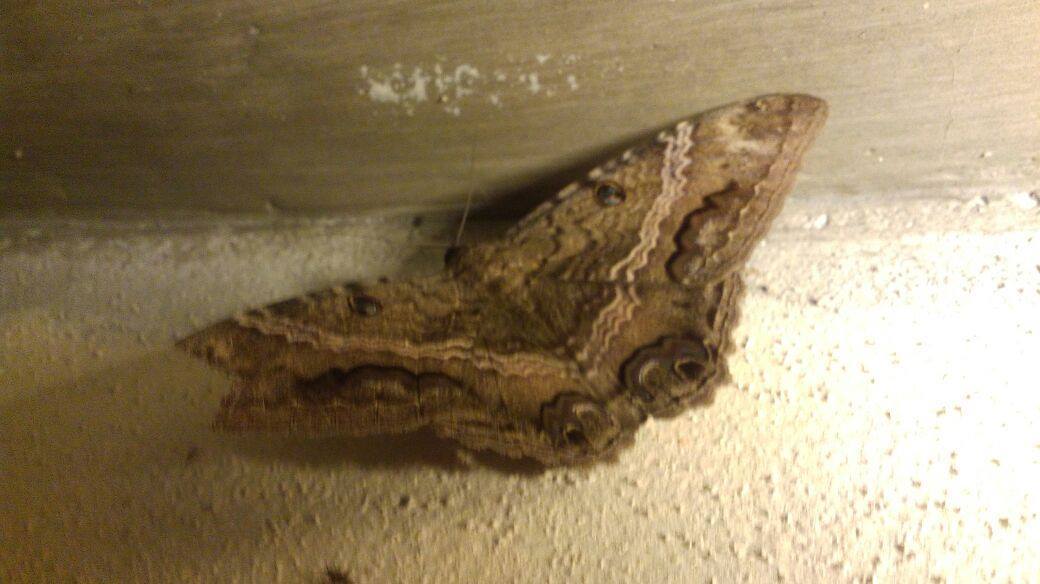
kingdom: Animalia
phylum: Arthropoda
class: Insecta
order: Lepidoptera
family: Erebidae
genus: Ascalapha
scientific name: Ascalapha odorata
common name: Black witch
